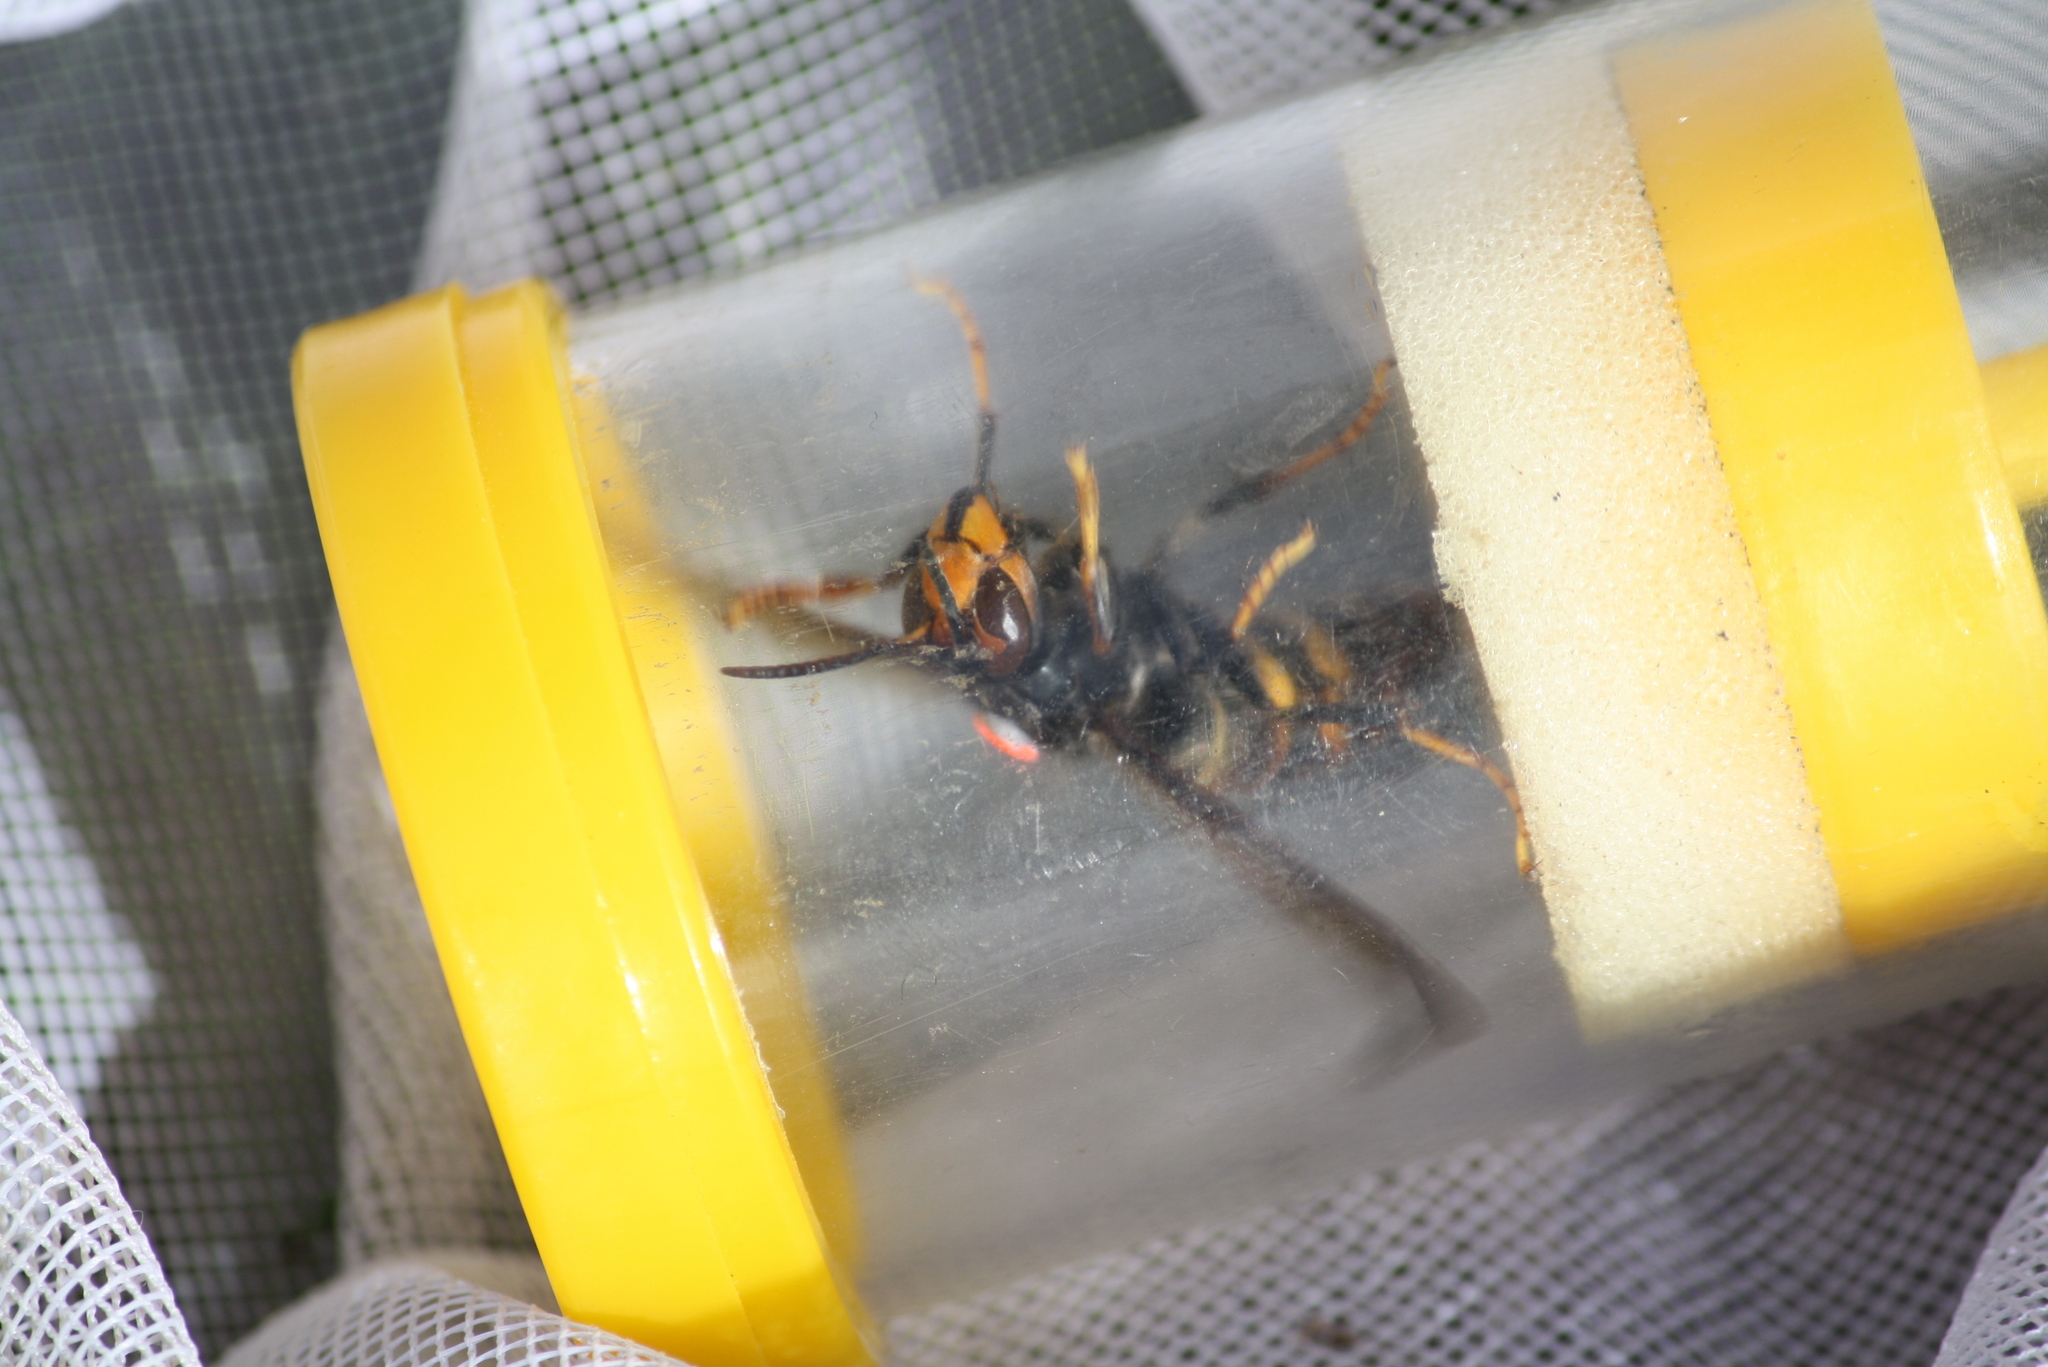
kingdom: Animalia
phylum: Arthropoda
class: Insecta
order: Hymenoptera
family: Vespidae
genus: Vespa
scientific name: Vespa velutina
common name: Asian hornet
